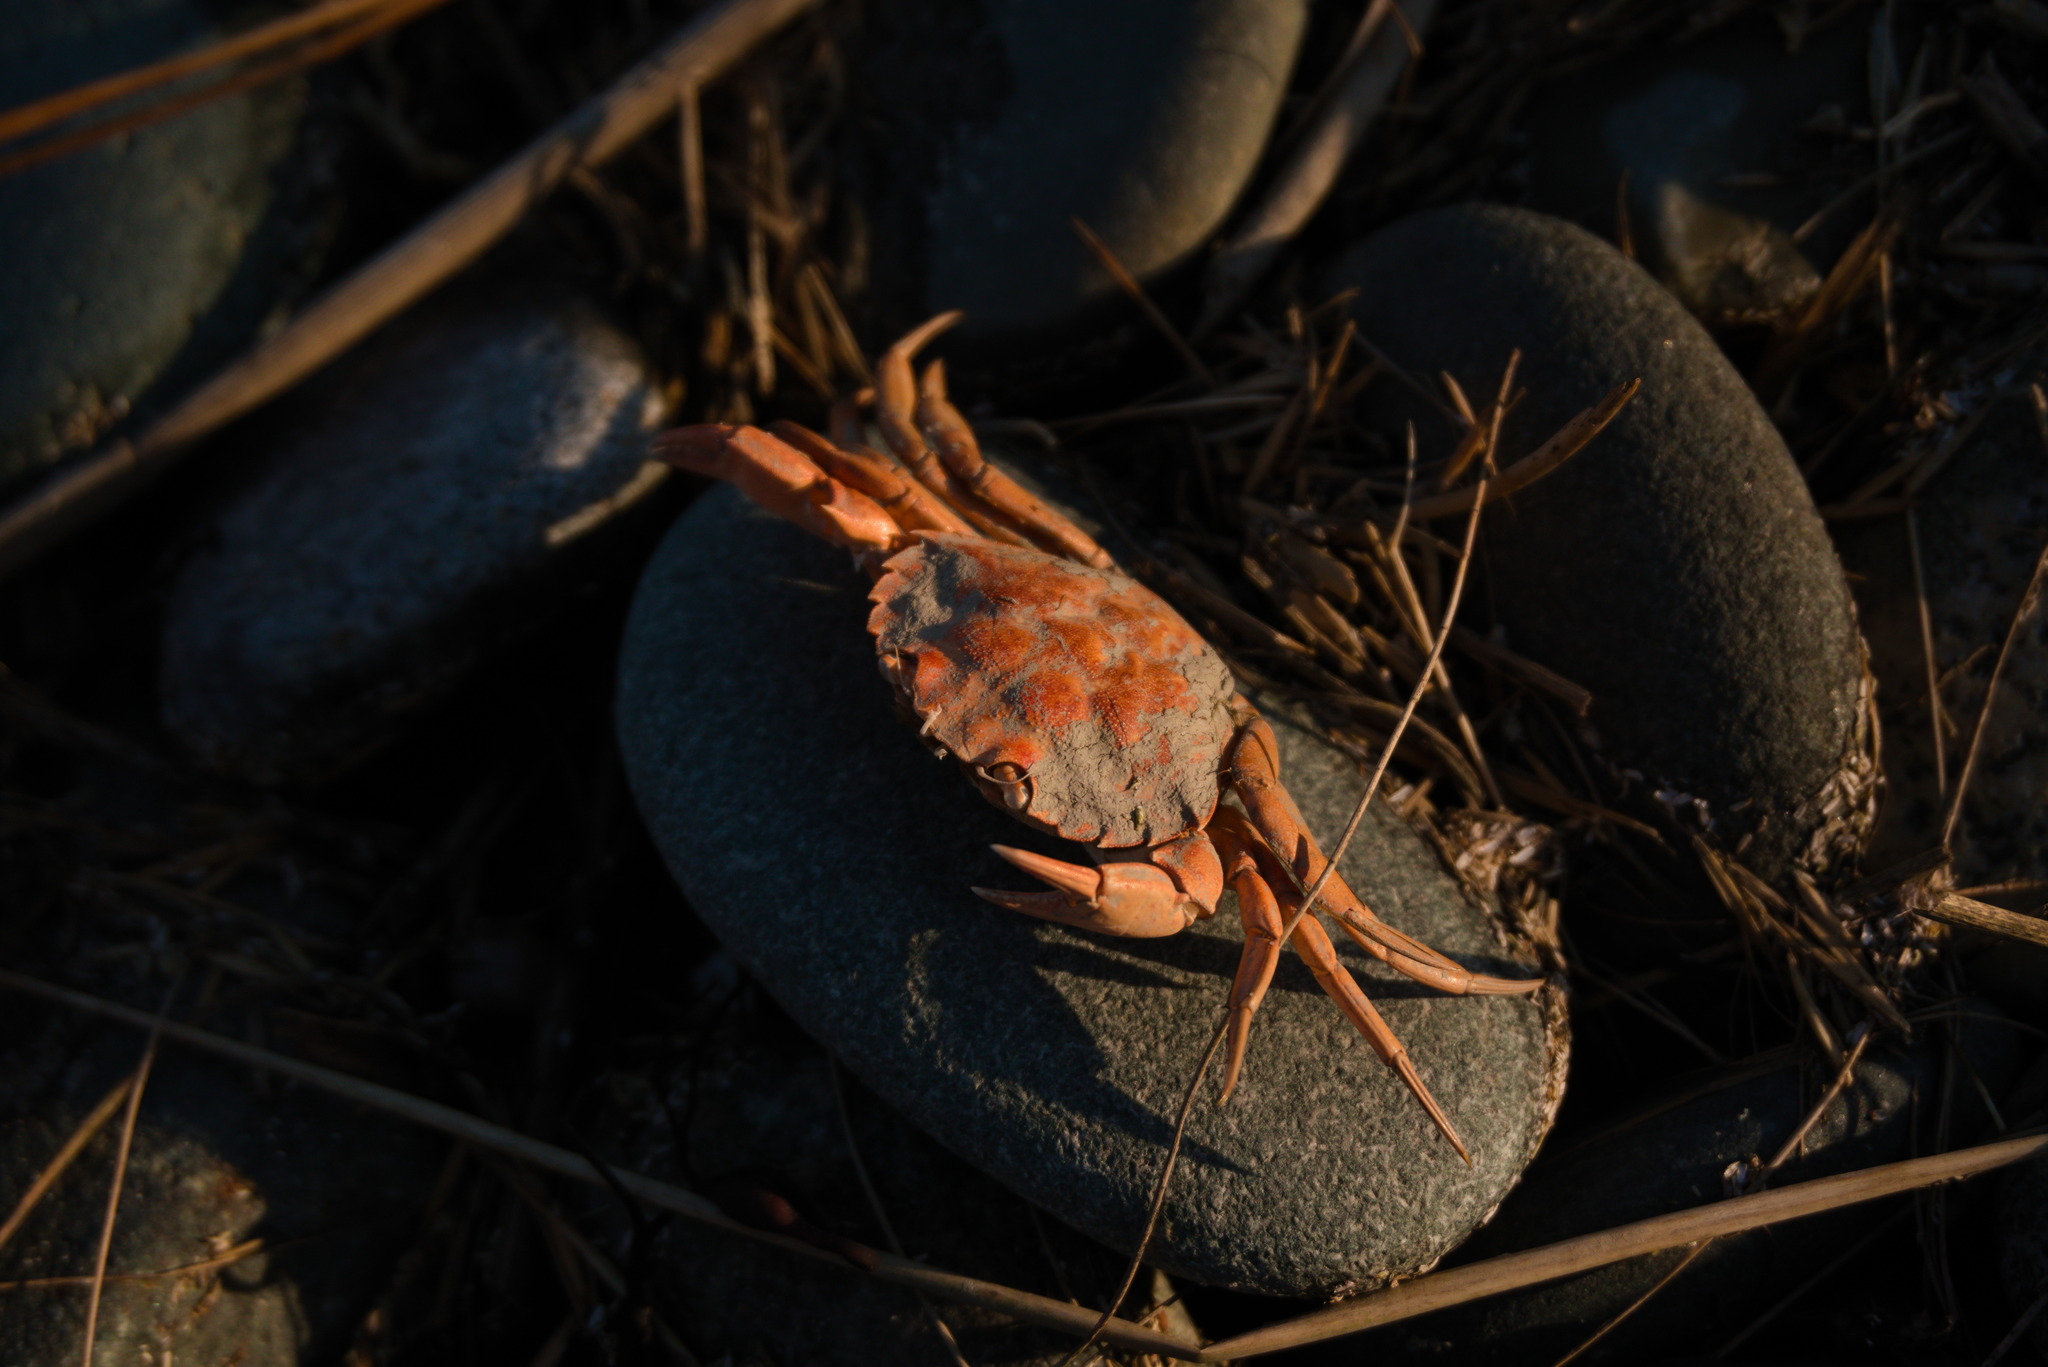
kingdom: Animalia
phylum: Arthropoda
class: Malacostraca
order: Decapoda
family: Carcinidae
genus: Carcinus
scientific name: Carcinus maenas
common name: European green crab
